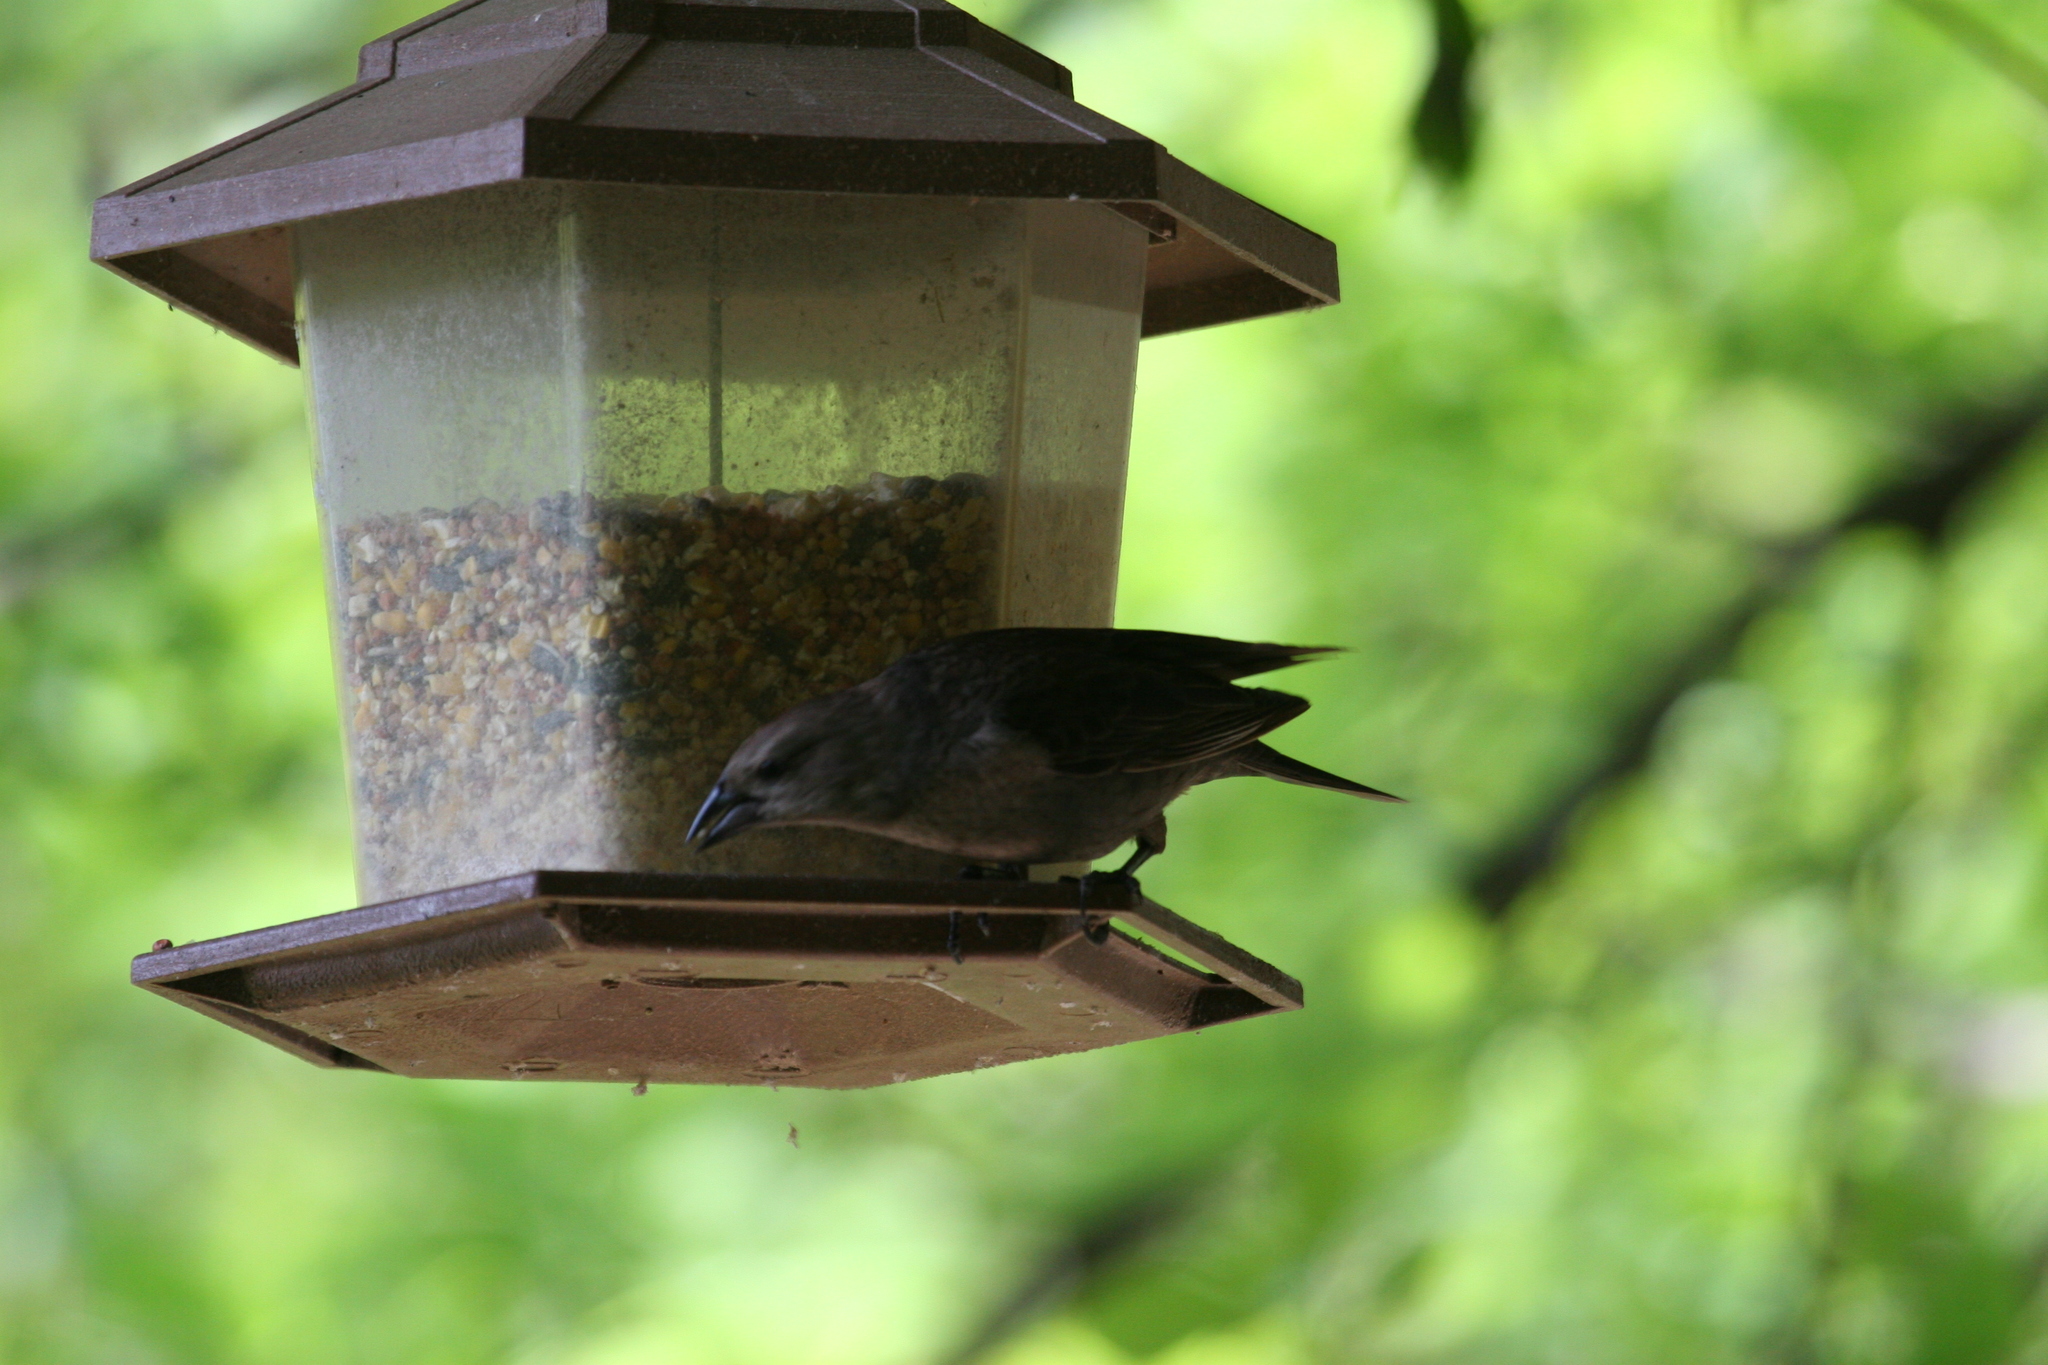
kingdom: Animalia
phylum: Chordata
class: Aves
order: Passeriformes
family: Icteridae
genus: Molothrus
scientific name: Molothrus ater
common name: Brown-headed cowbird
